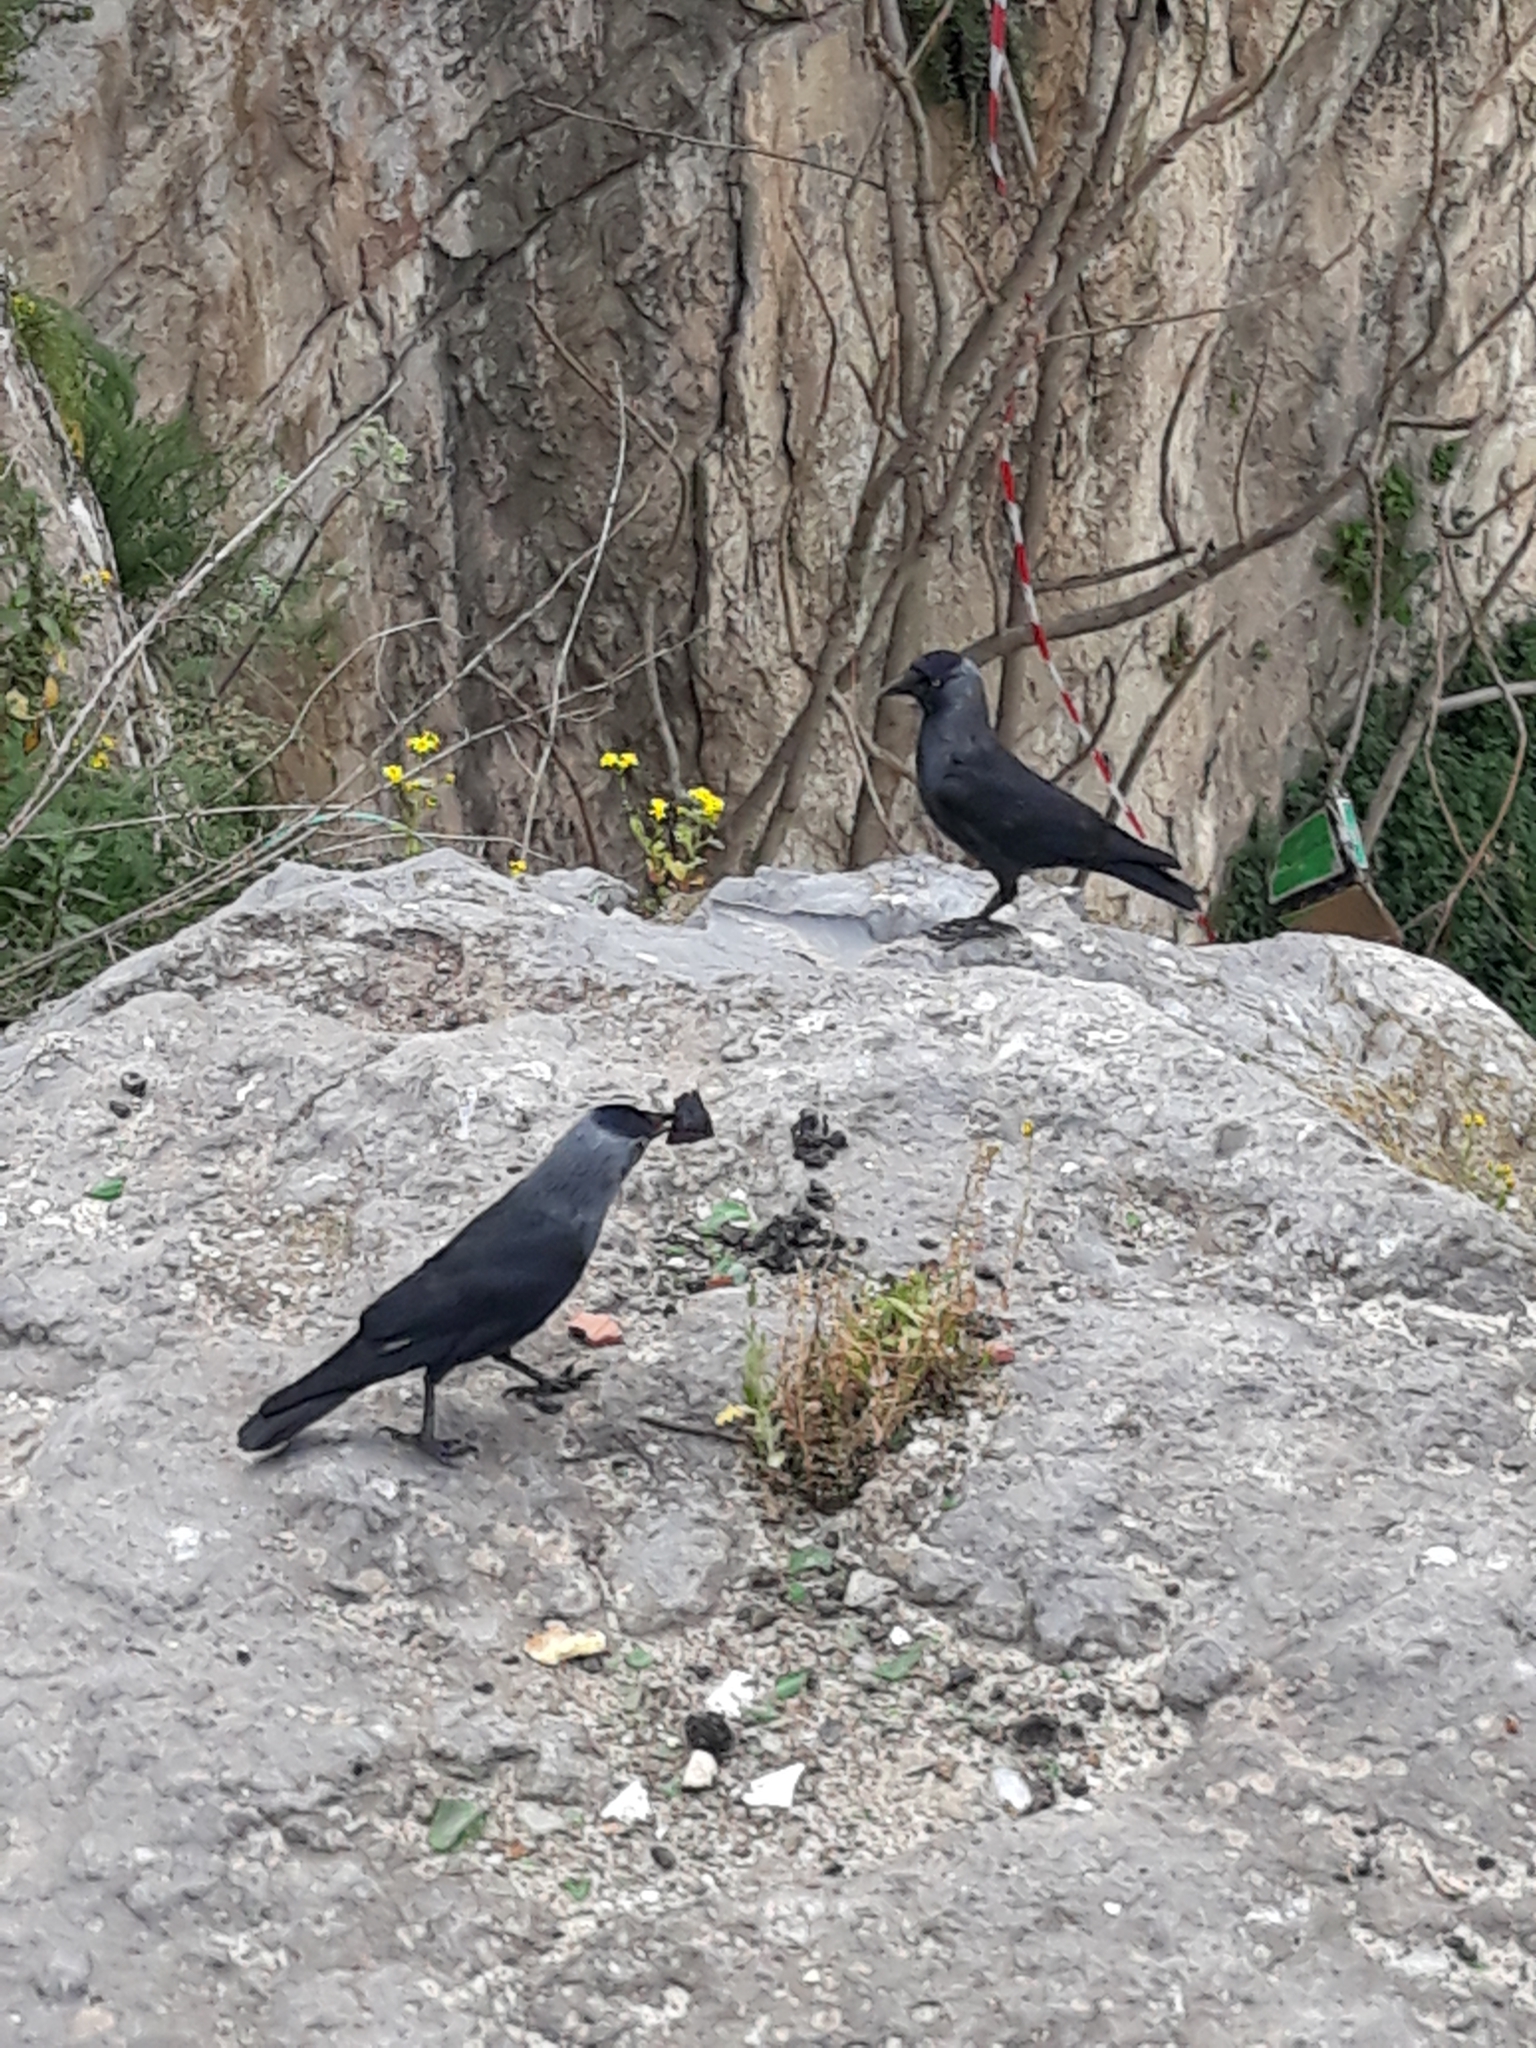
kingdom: Animalia
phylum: Chordata
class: Aves
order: Passeriformes
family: Corvidae
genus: Coloeus
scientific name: Coloeus monedula
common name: Western jackdaw
